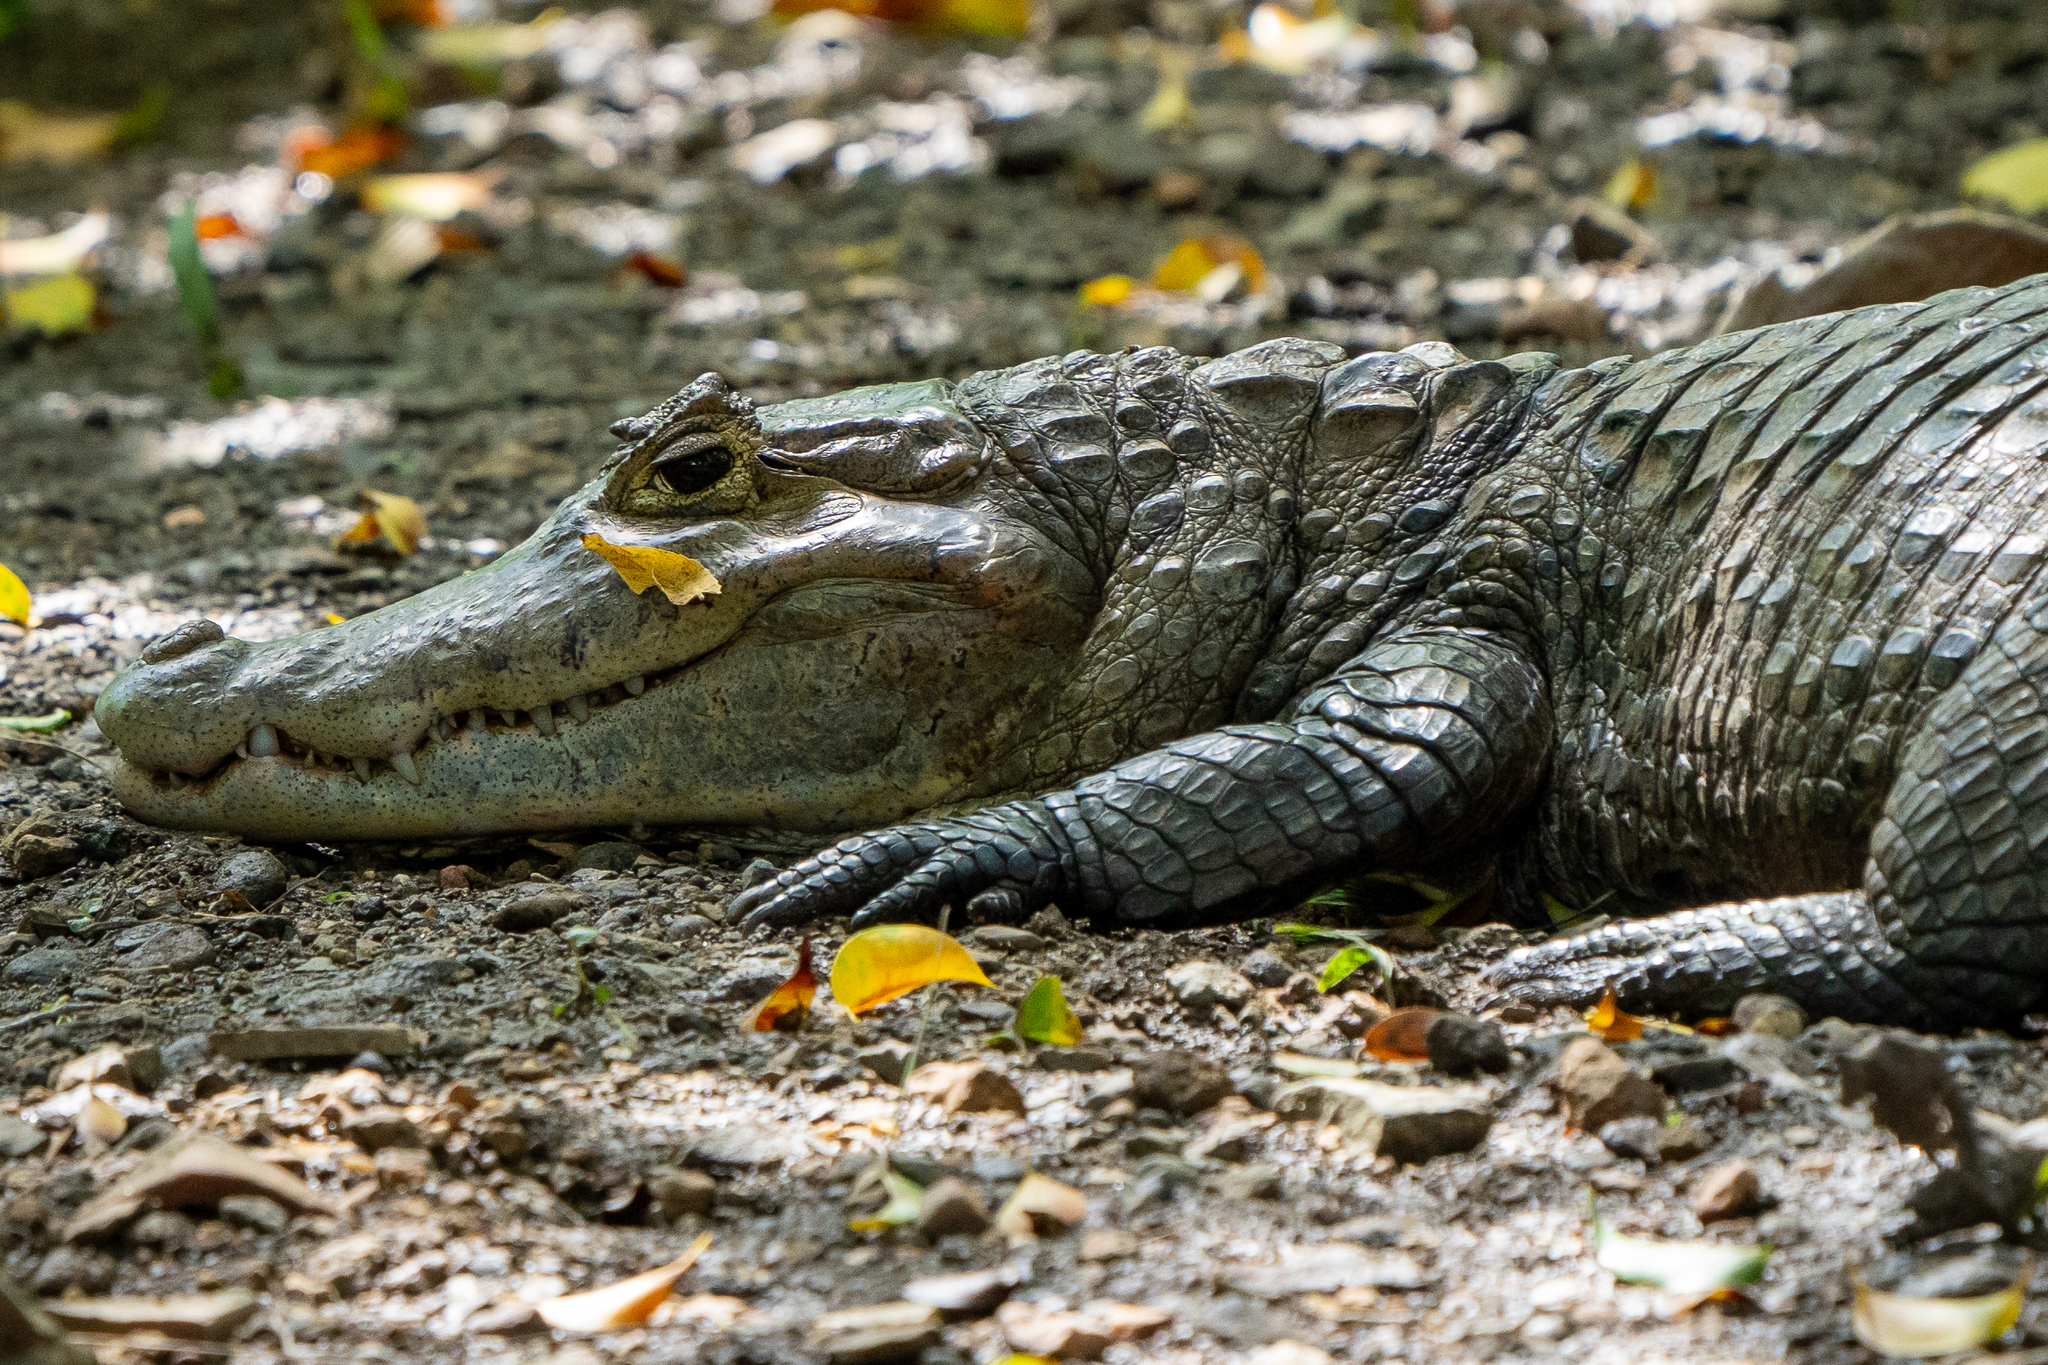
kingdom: Animalia
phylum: Chordata
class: Crocodylia
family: Alligatoridae
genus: Caiman
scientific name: Caiman crocodilus
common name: Common caiman
